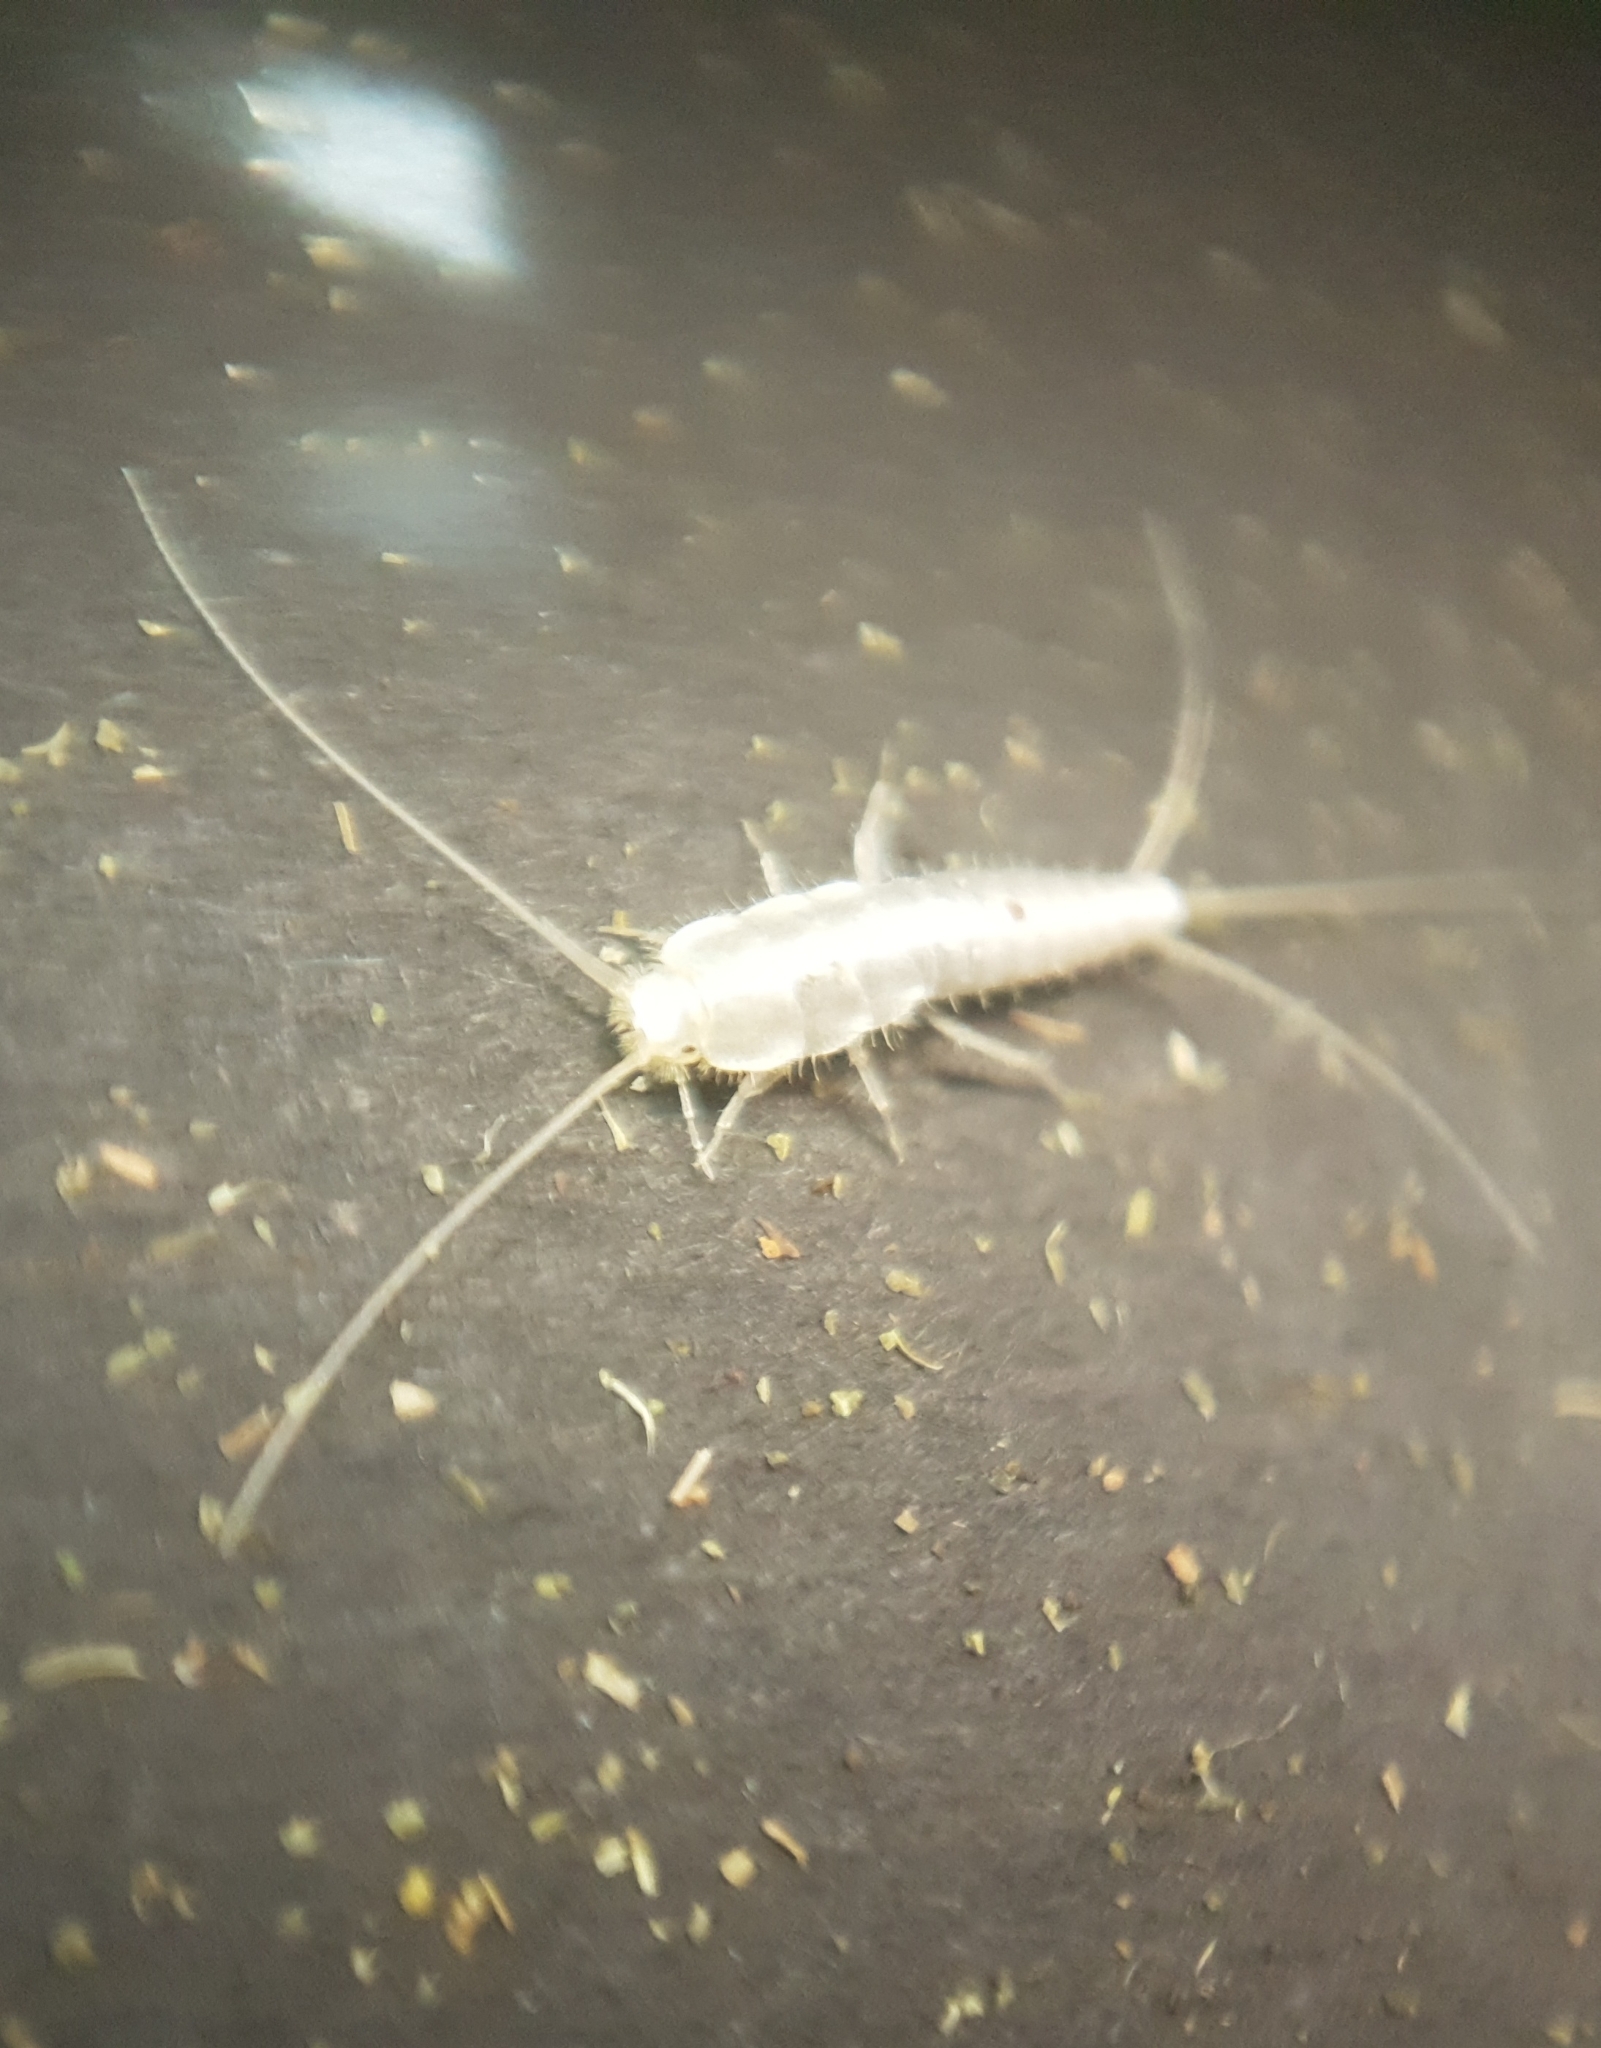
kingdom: Animalia
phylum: Arthropoda
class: Insecta
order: Zygentoma
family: Lepismatidae
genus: Ctenolepisma
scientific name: Ctenolepisma calvum
